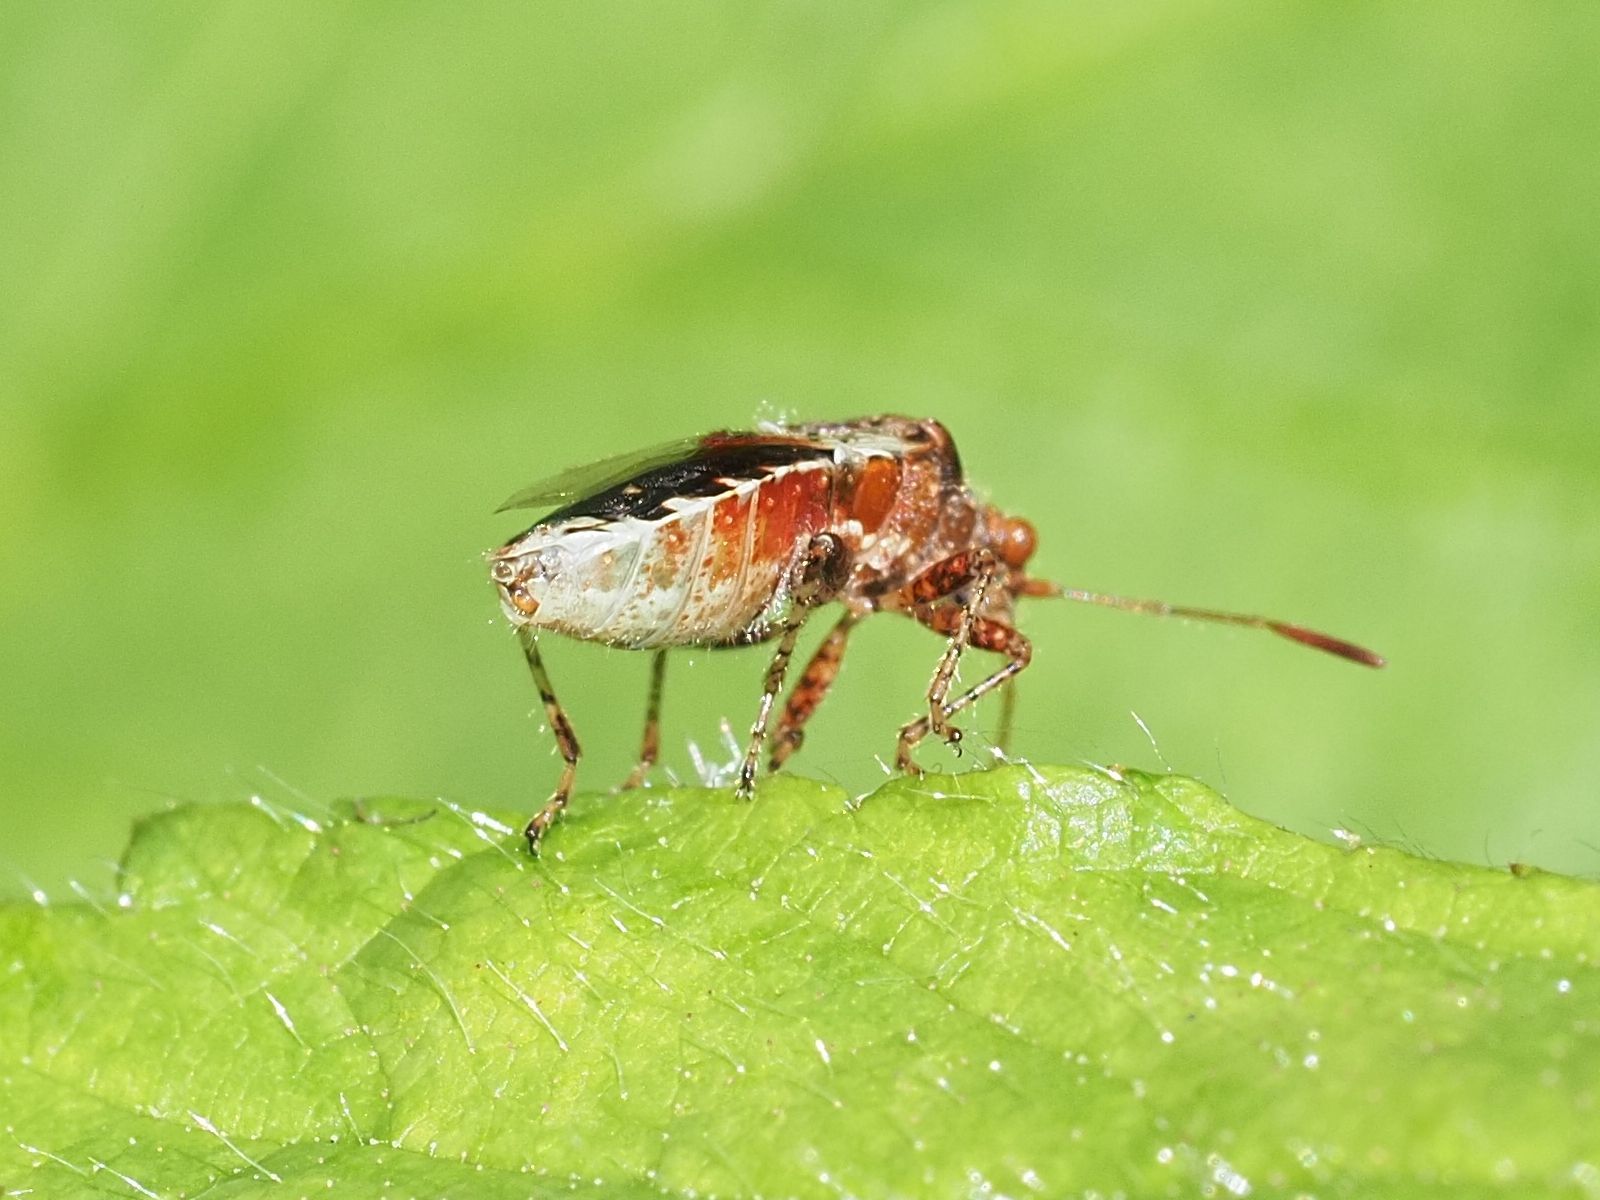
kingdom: Animalia
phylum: Arthropoda
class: Insecta
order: Hemiptera
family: Rhopalidae
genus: Rhopalus
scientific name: Rhopalus subrufus
